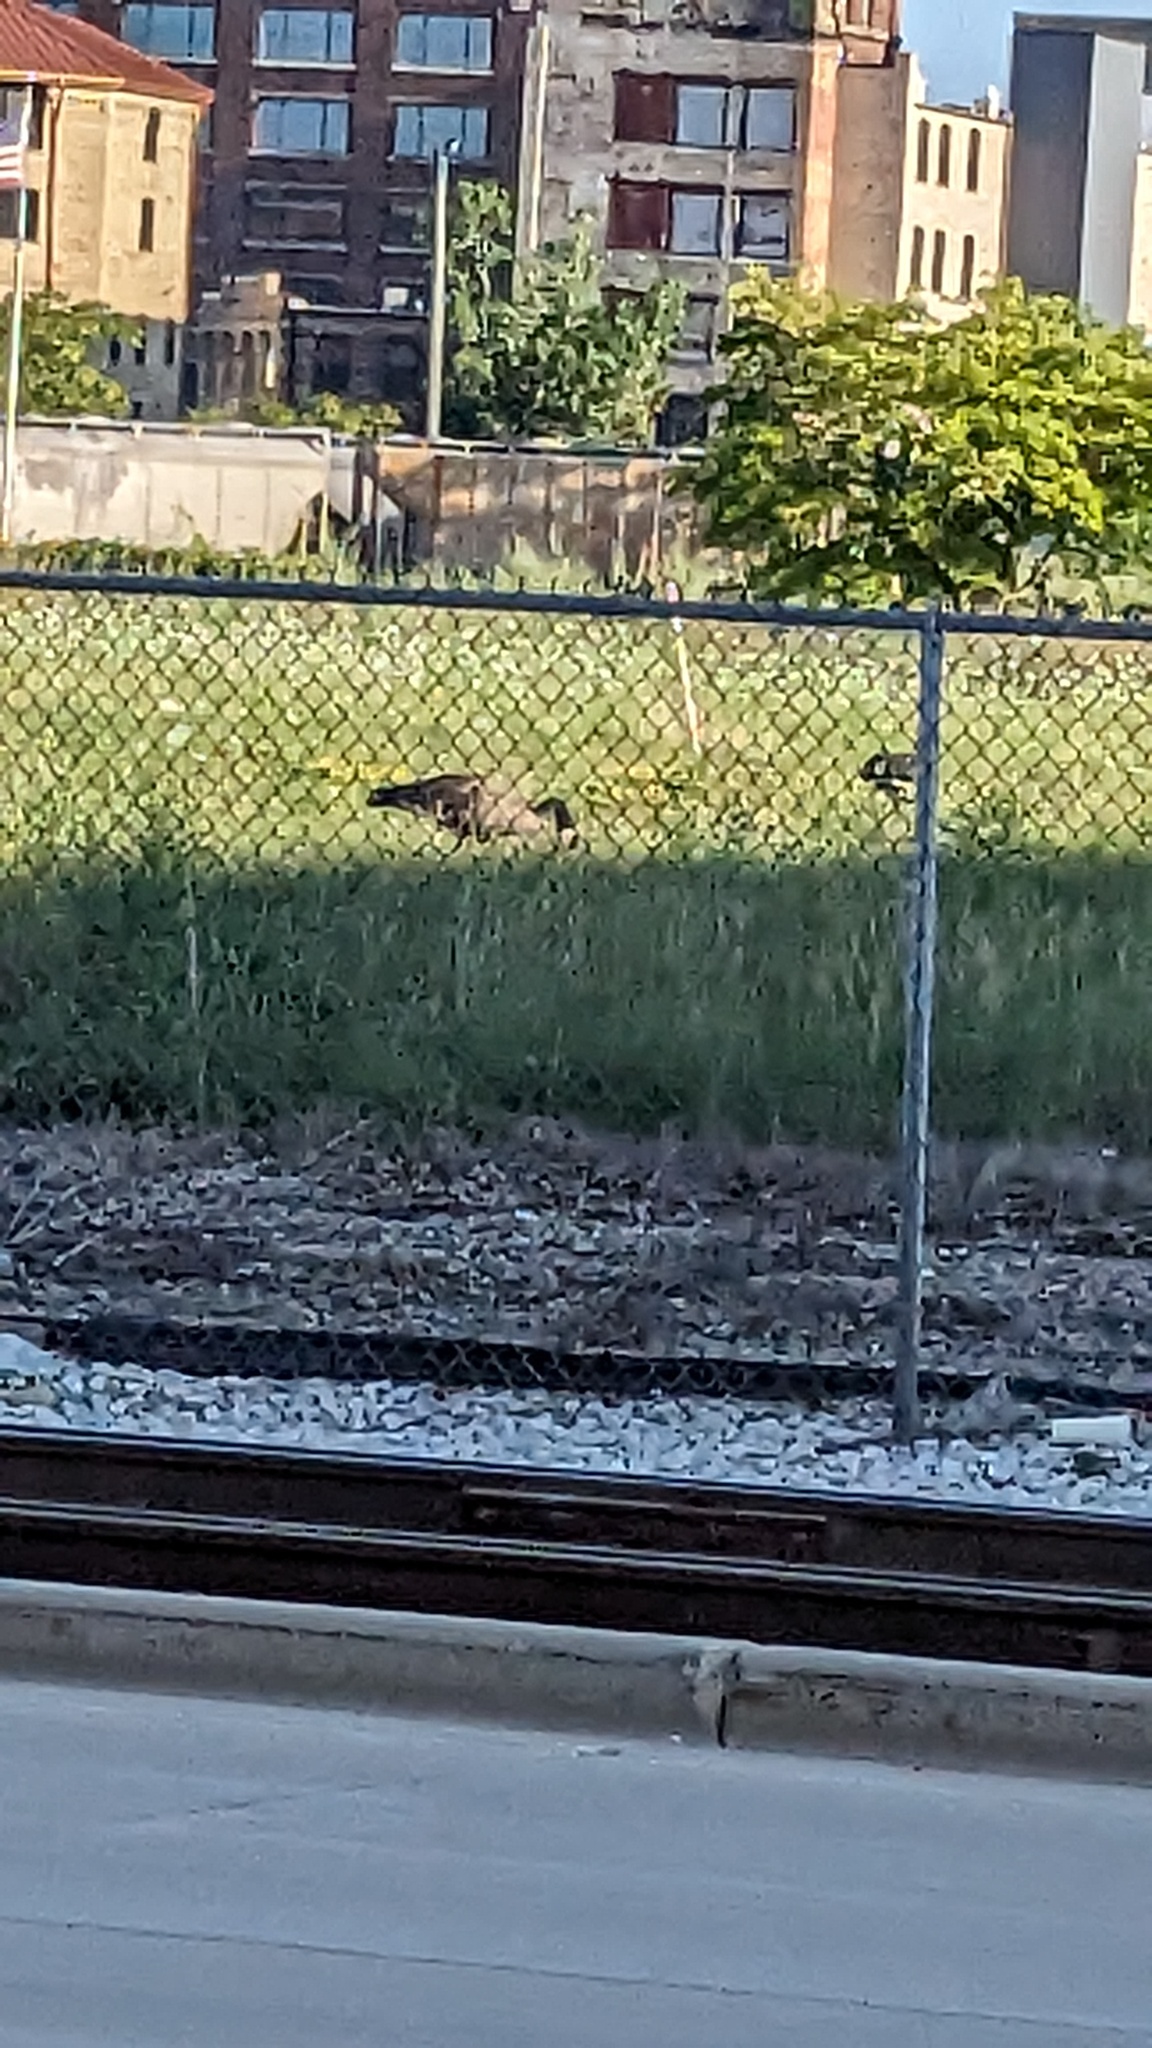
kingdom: Animalia
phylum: Chordata
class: Aves
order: Anseriformes
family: Anatidae
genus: Branta
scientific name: Branta canadensis
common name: Canada goose
